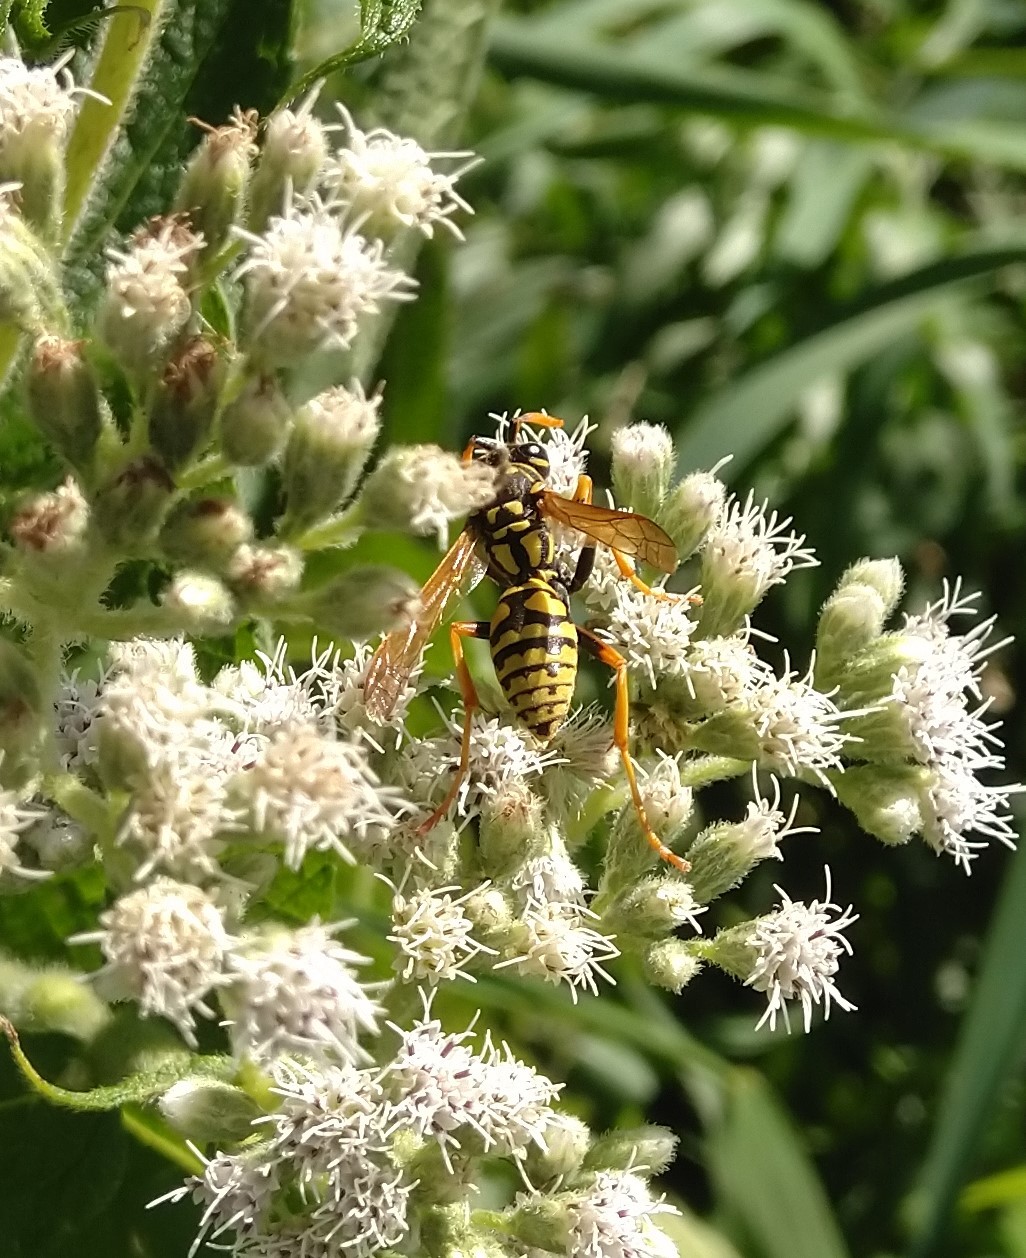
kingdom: Animalia
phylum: Arthropoda
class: Insecta
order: Hymenoptera
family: Eumenidae
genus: Polistes
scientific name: Polistes dominula
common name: Paper wasp
